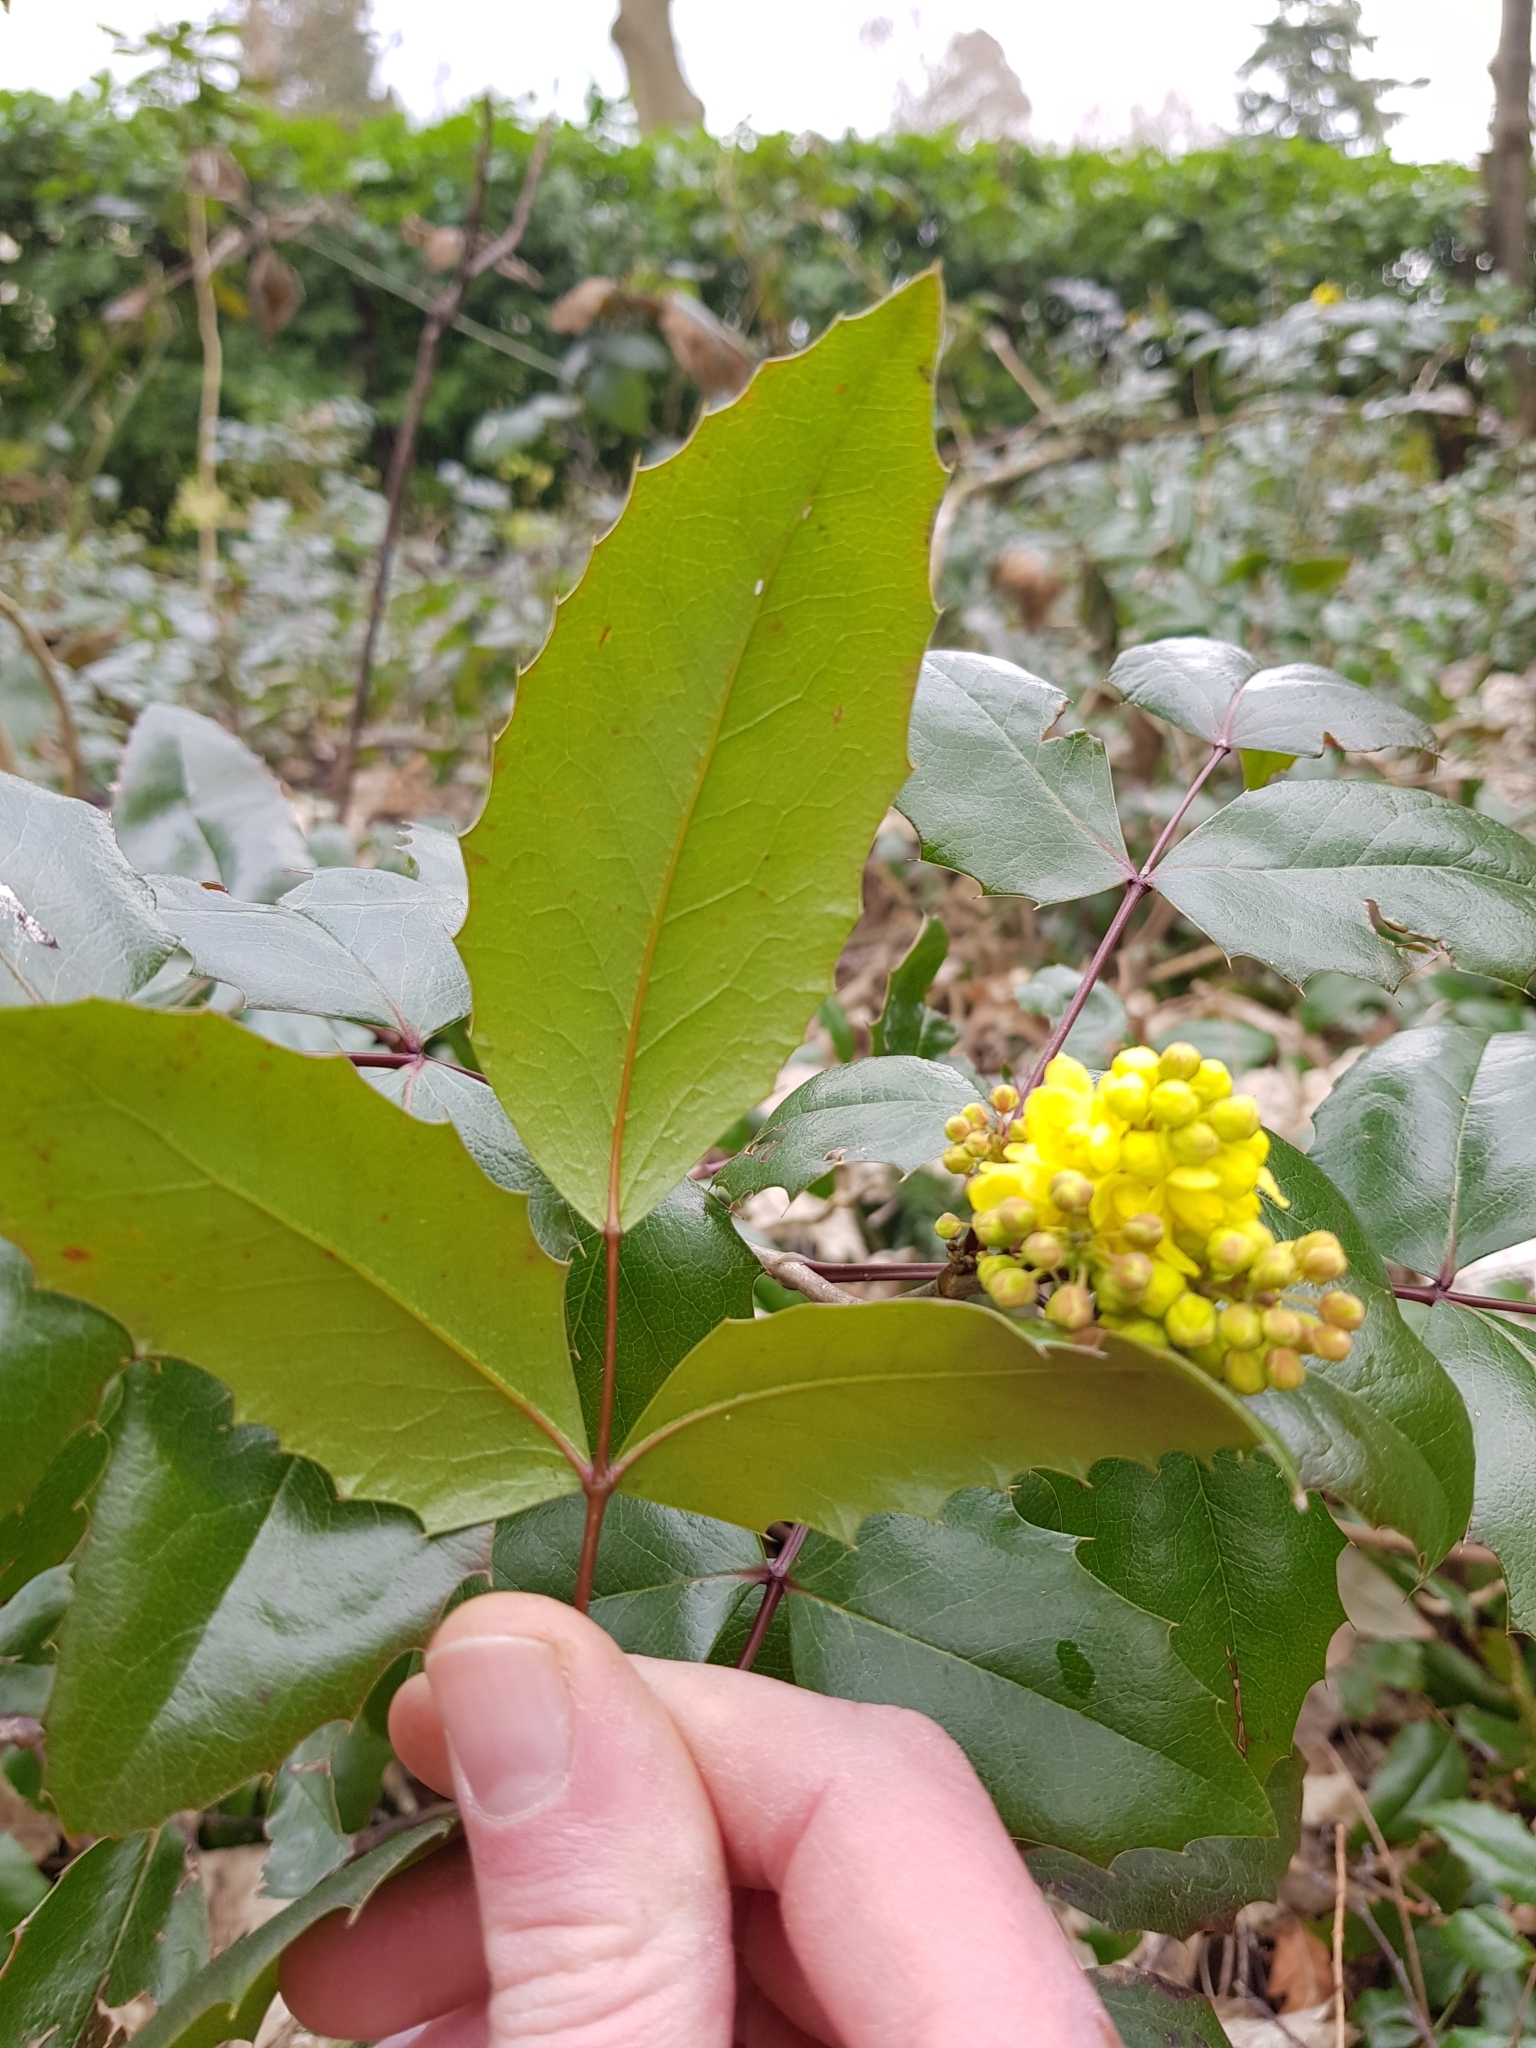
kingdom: Plantae
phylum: Tracheophyta
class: Magnoliopsida
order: Ranunculales
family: Berberidaceae
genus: Mahonia
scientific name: Mahonia aquifolium
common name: Oregon-grape
